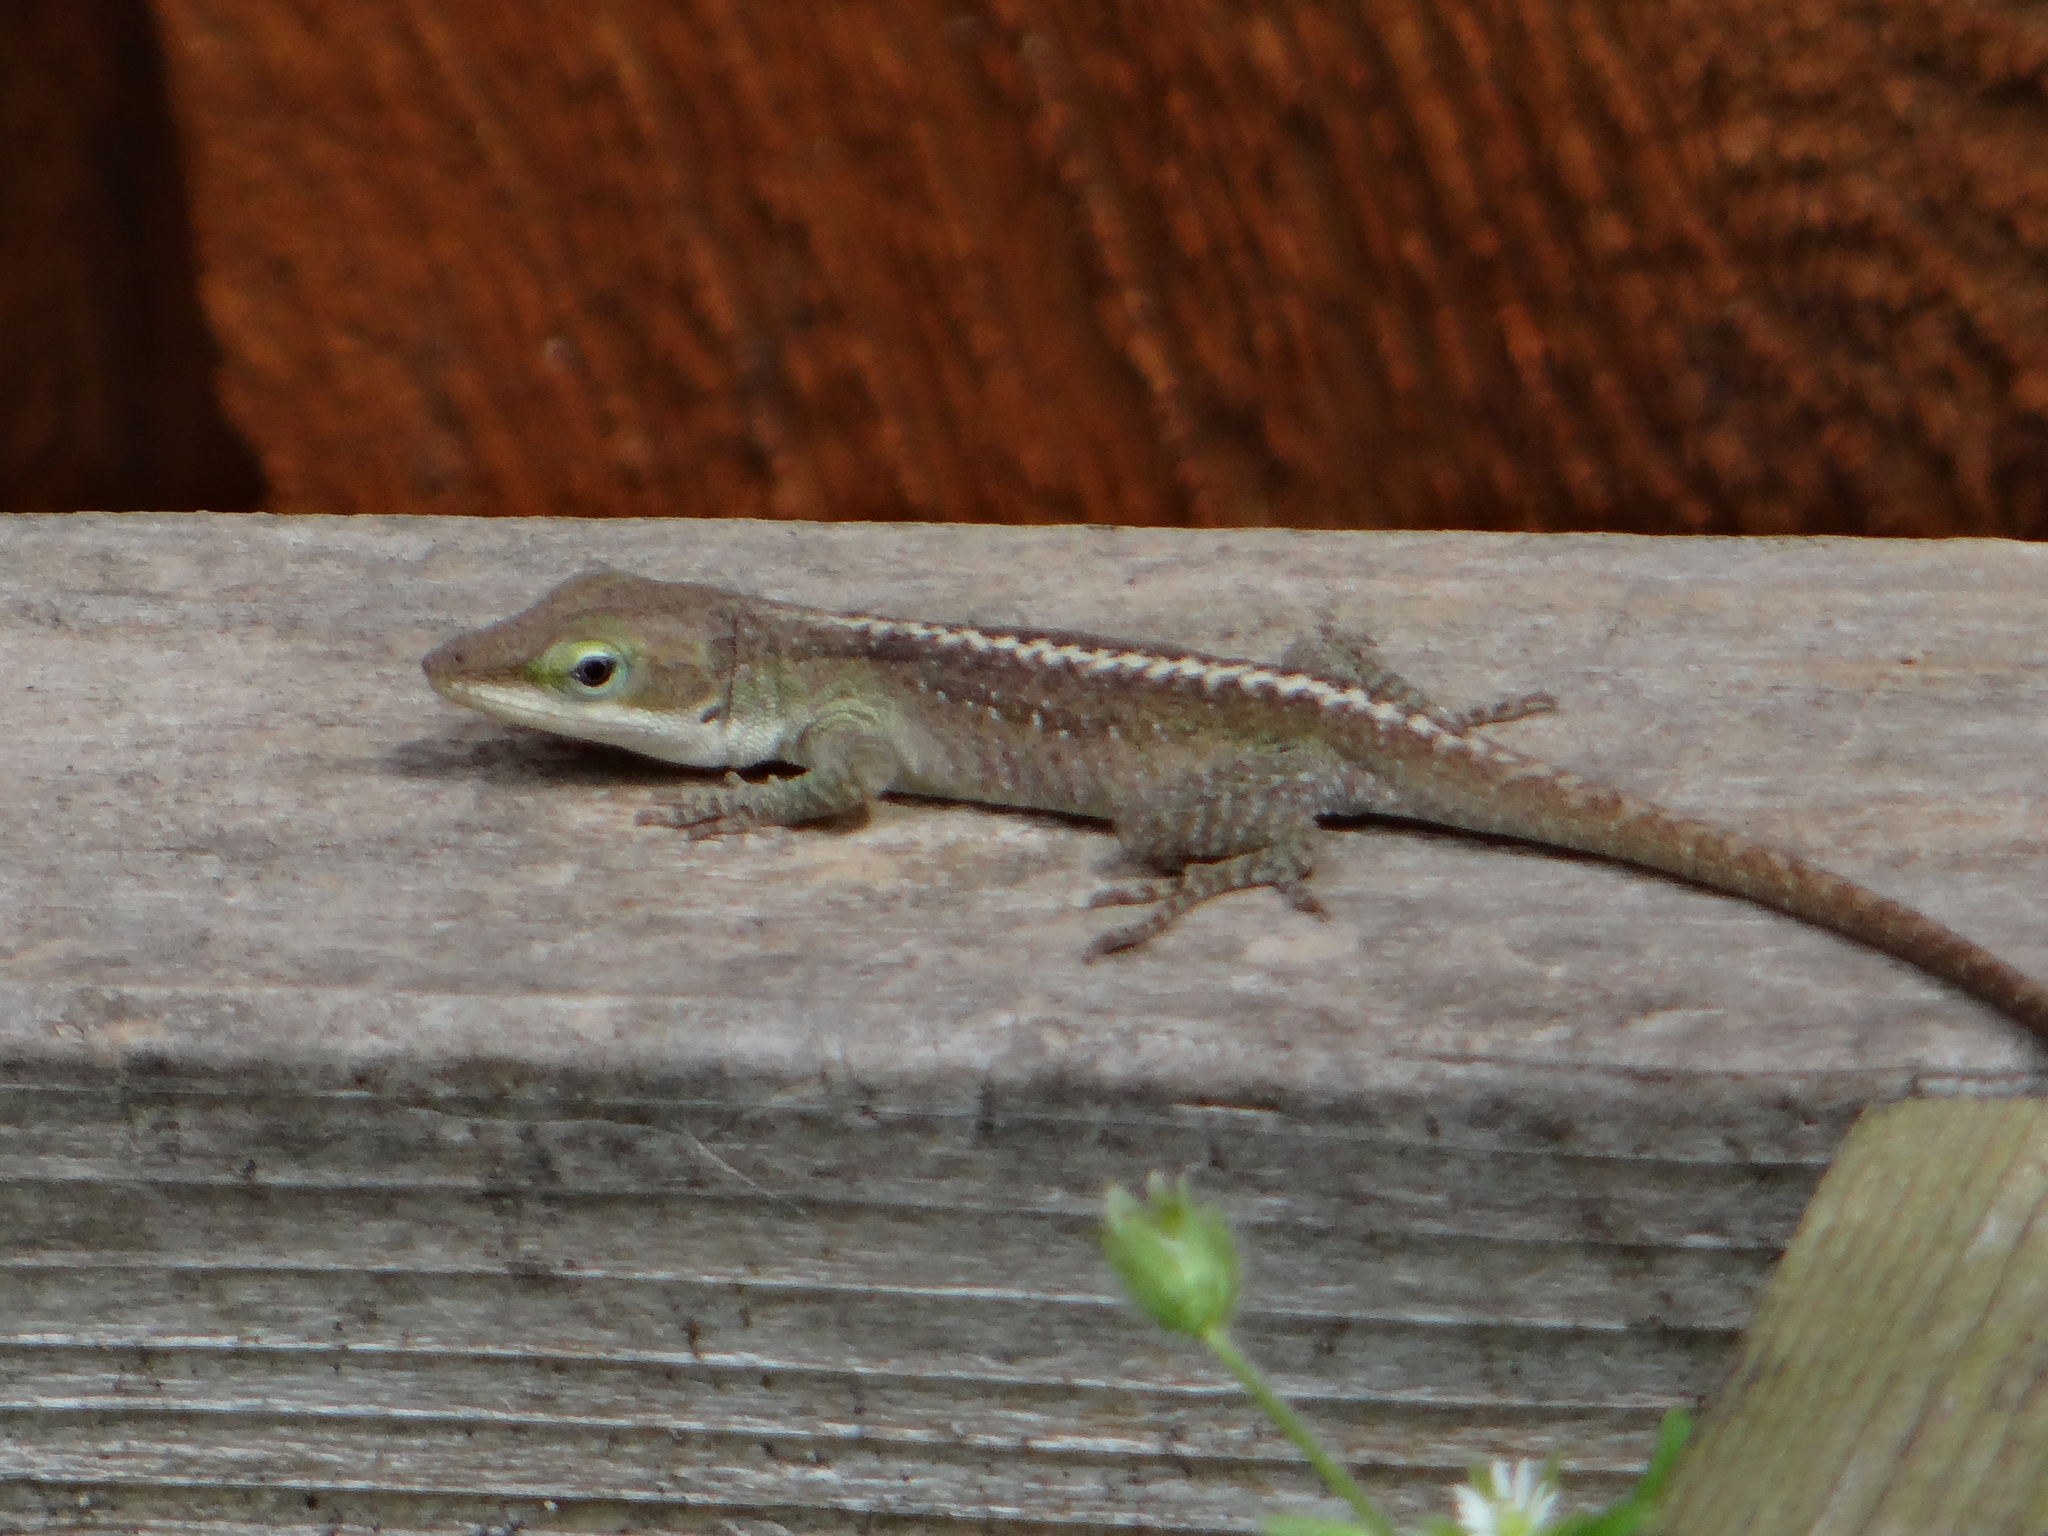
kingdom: Animalia
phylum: Chordata
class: Squamata
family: Dactyloidae
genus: Anolis
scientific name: Anolis carolinensis
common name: Green anole
